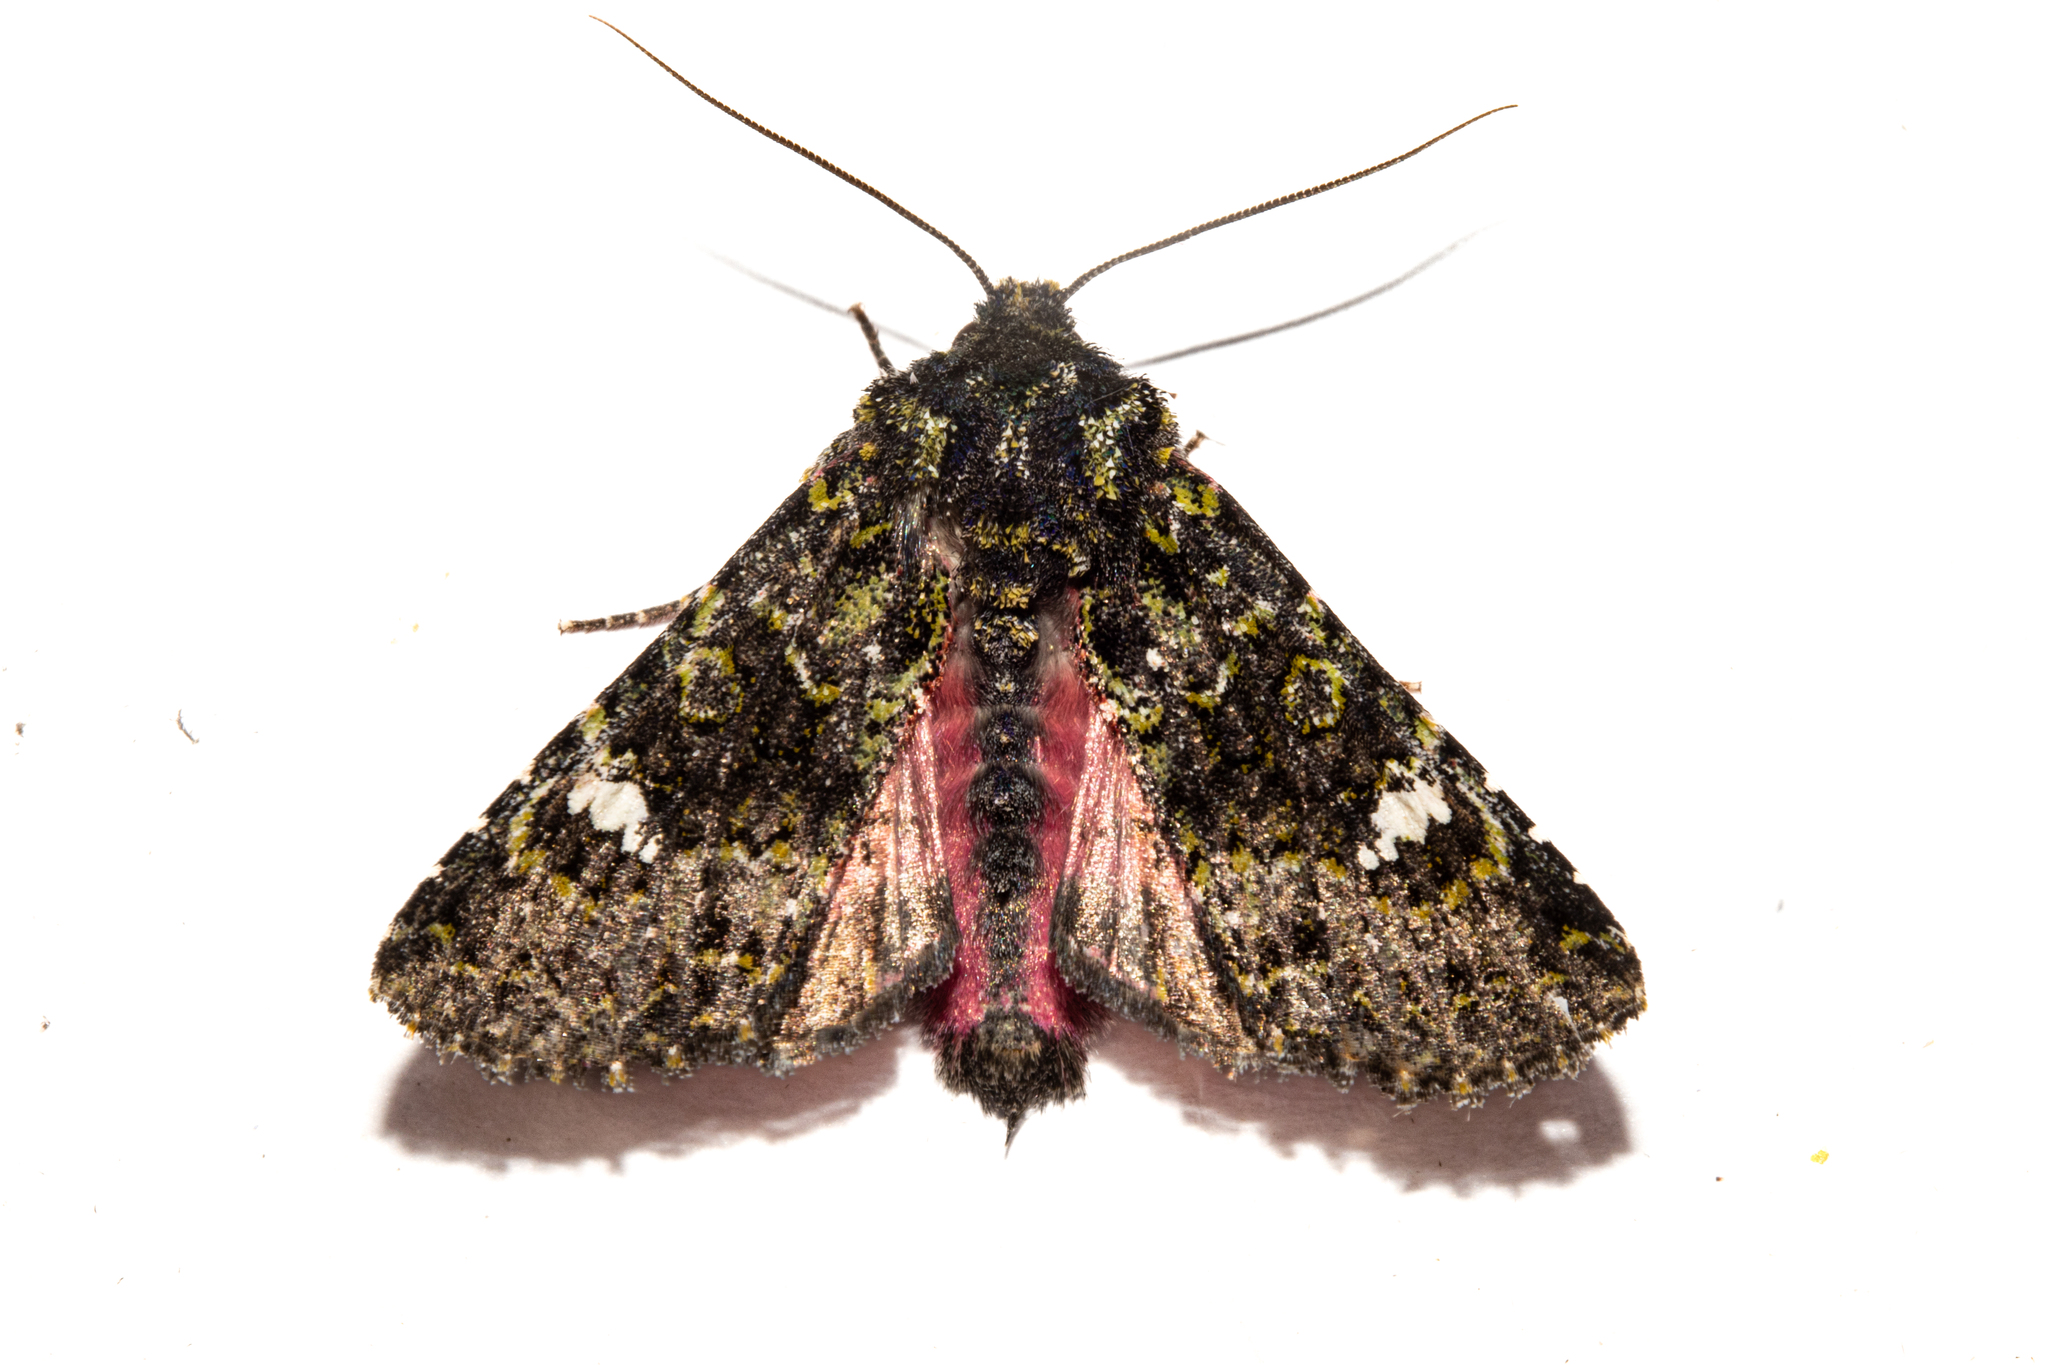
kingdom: Animalia
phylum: Arthropoda
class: Insecta
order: Lepidoptera
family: Noctuidae
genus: Meterana
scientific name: Meterana meyricci
